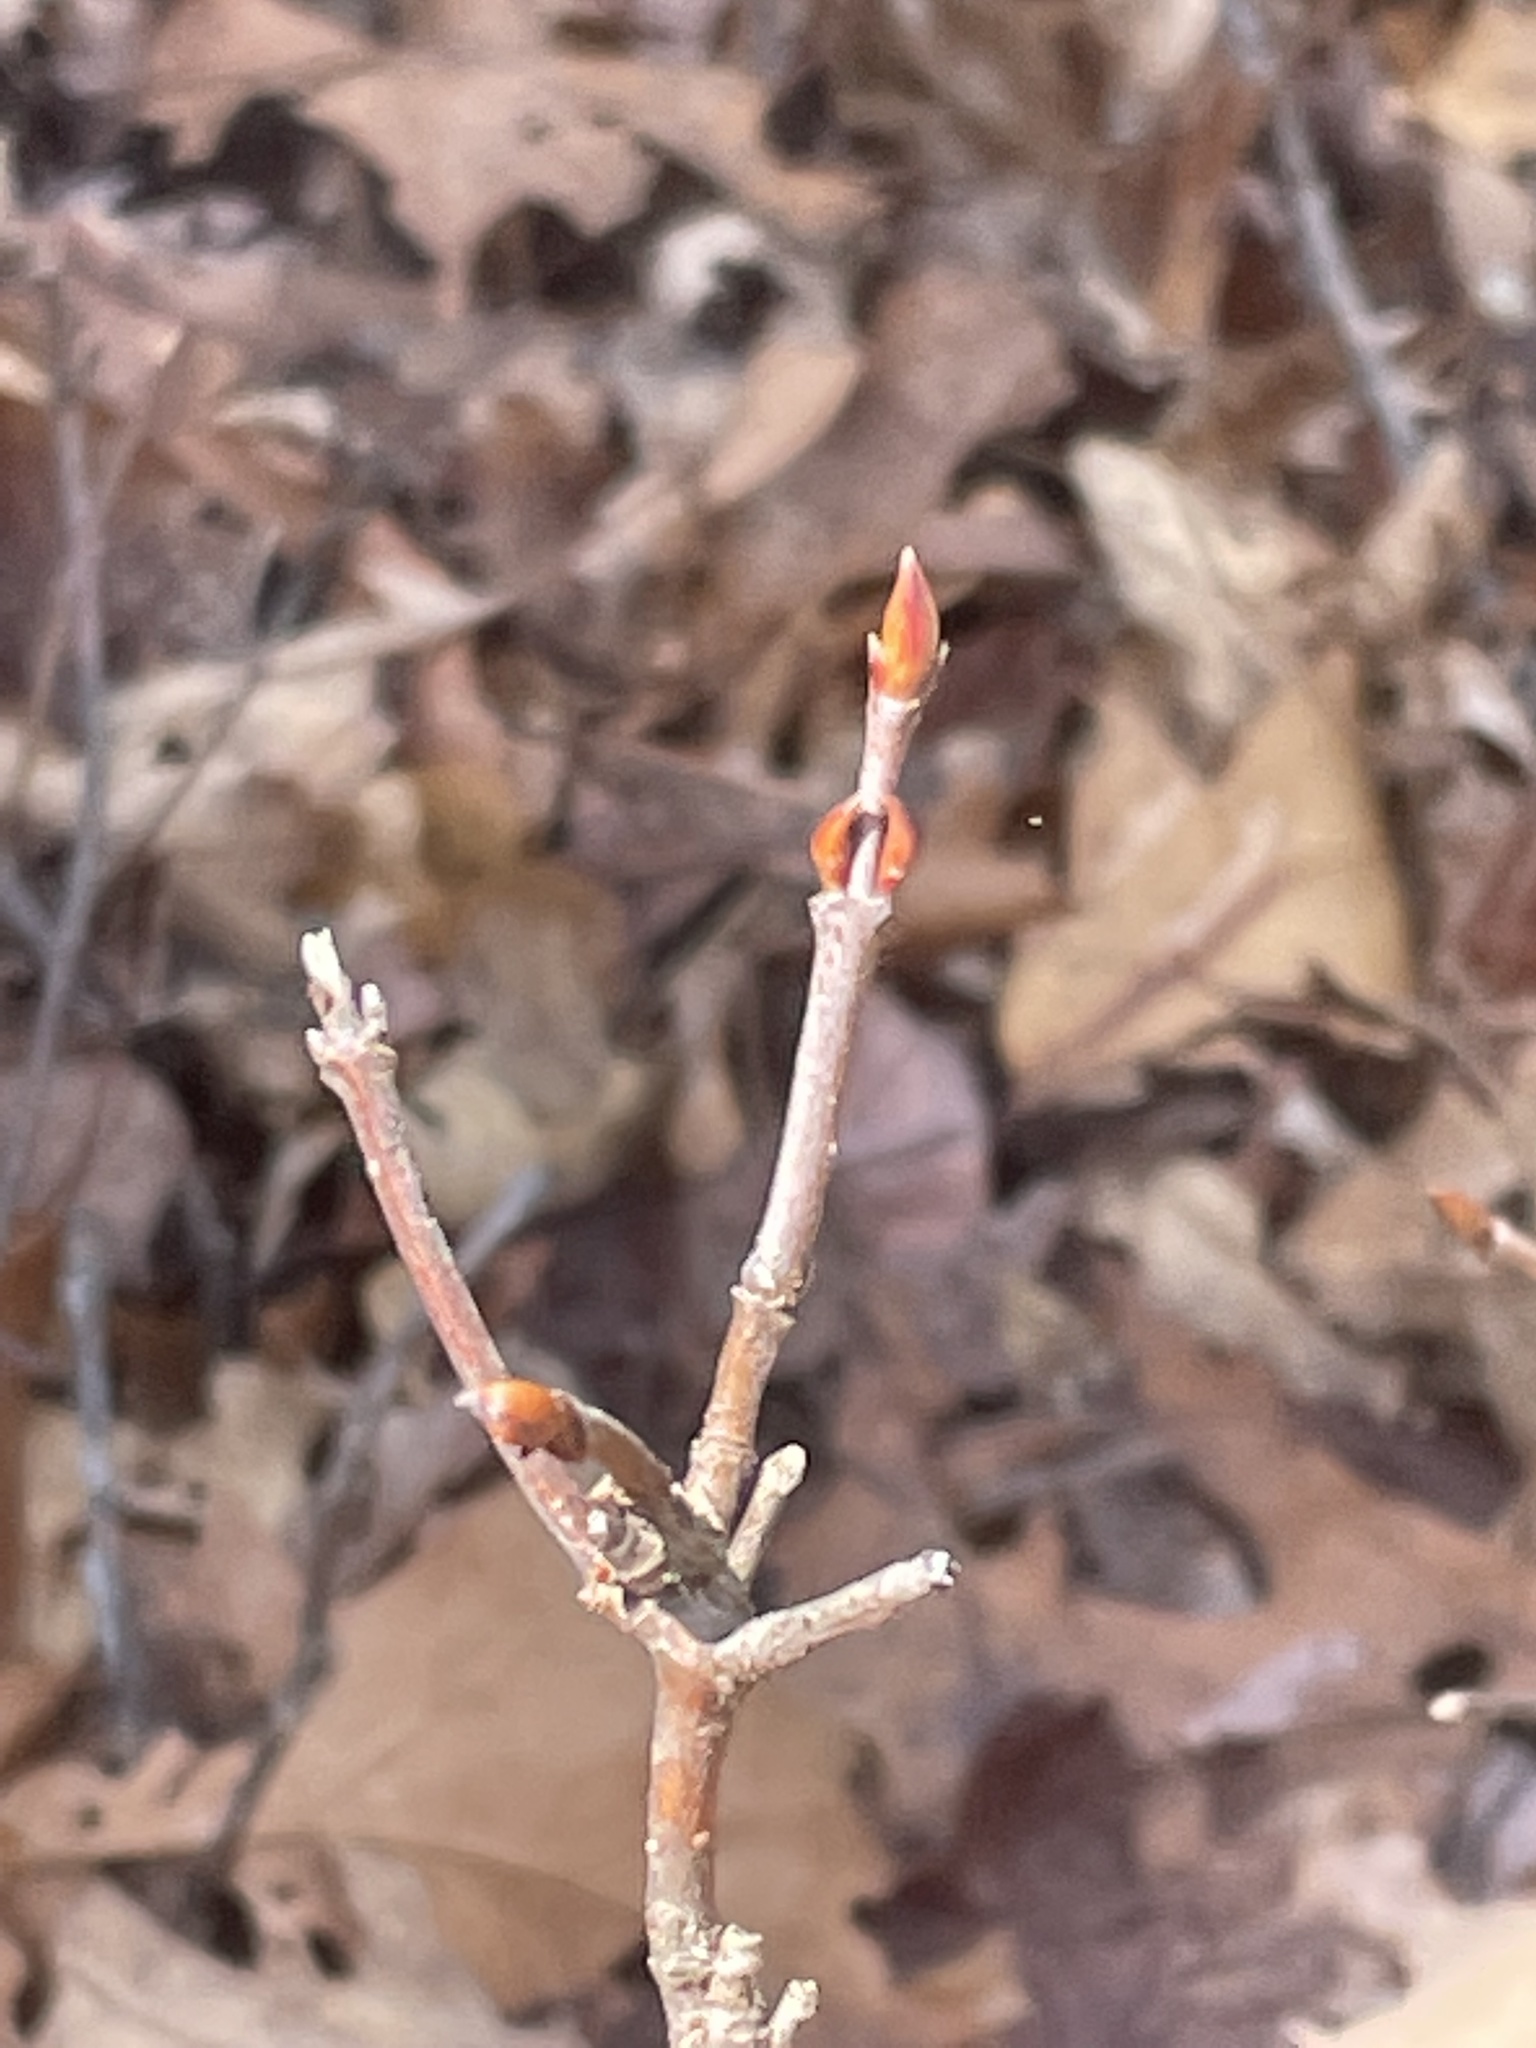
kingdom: Plantae
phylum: Tracheophyta
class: Magnoliopsida
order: Dipsacales
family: Viburnaceae
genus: Viburnum
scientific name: Viburnum opulus
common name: Guelder-rose
